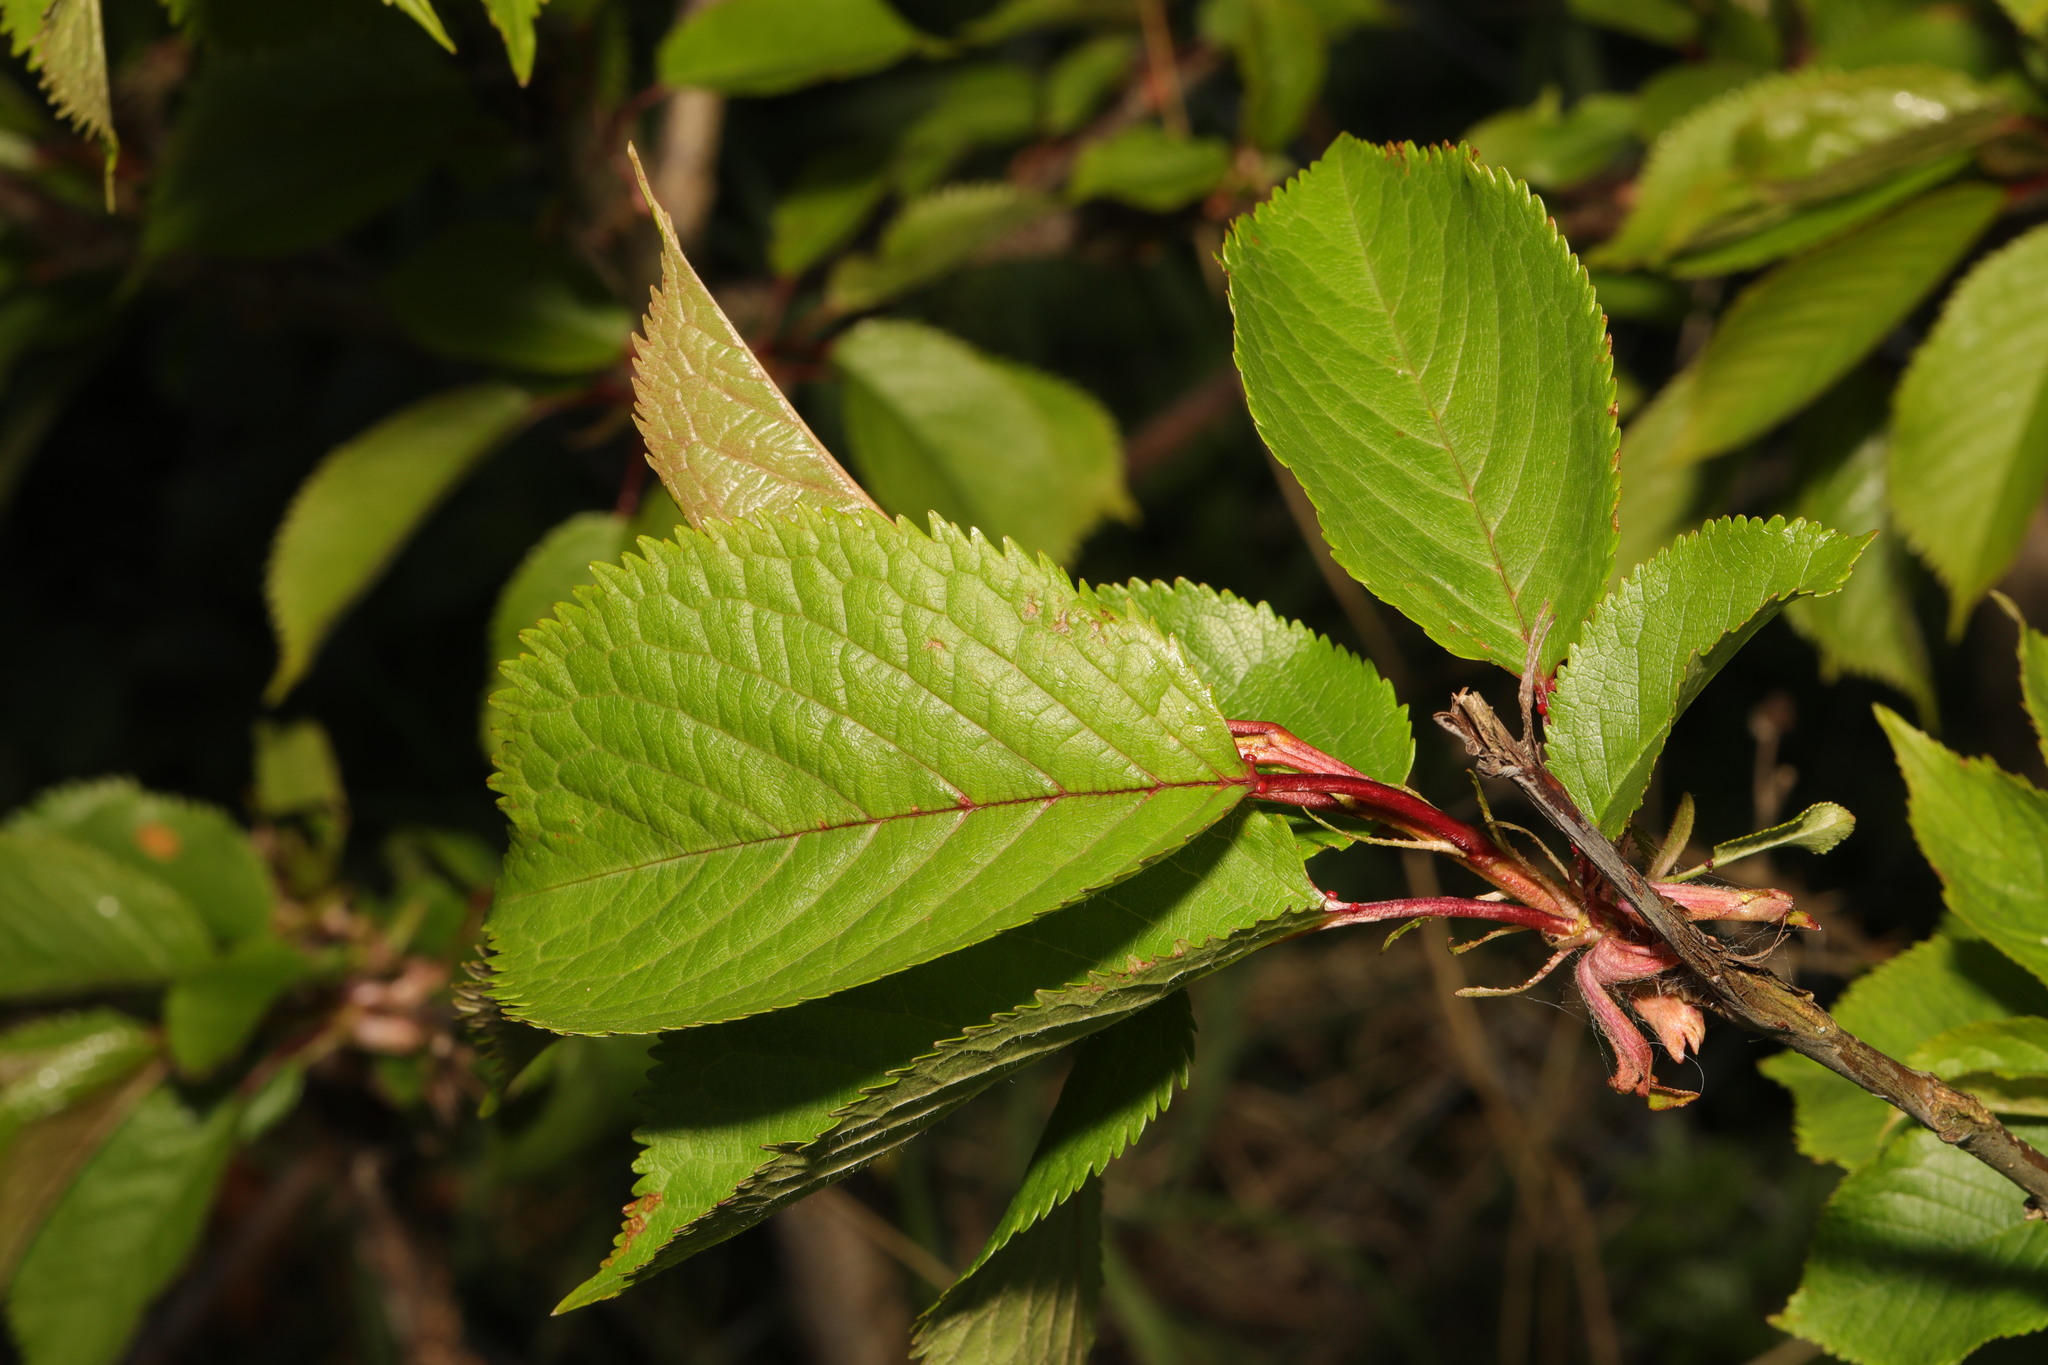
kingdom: Plantae
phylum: Tracheophyta
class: Magnoliopsida
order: Rosales
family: Rosaceae
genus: Prunus
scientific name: Prunus avium
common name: Sweet cherry
